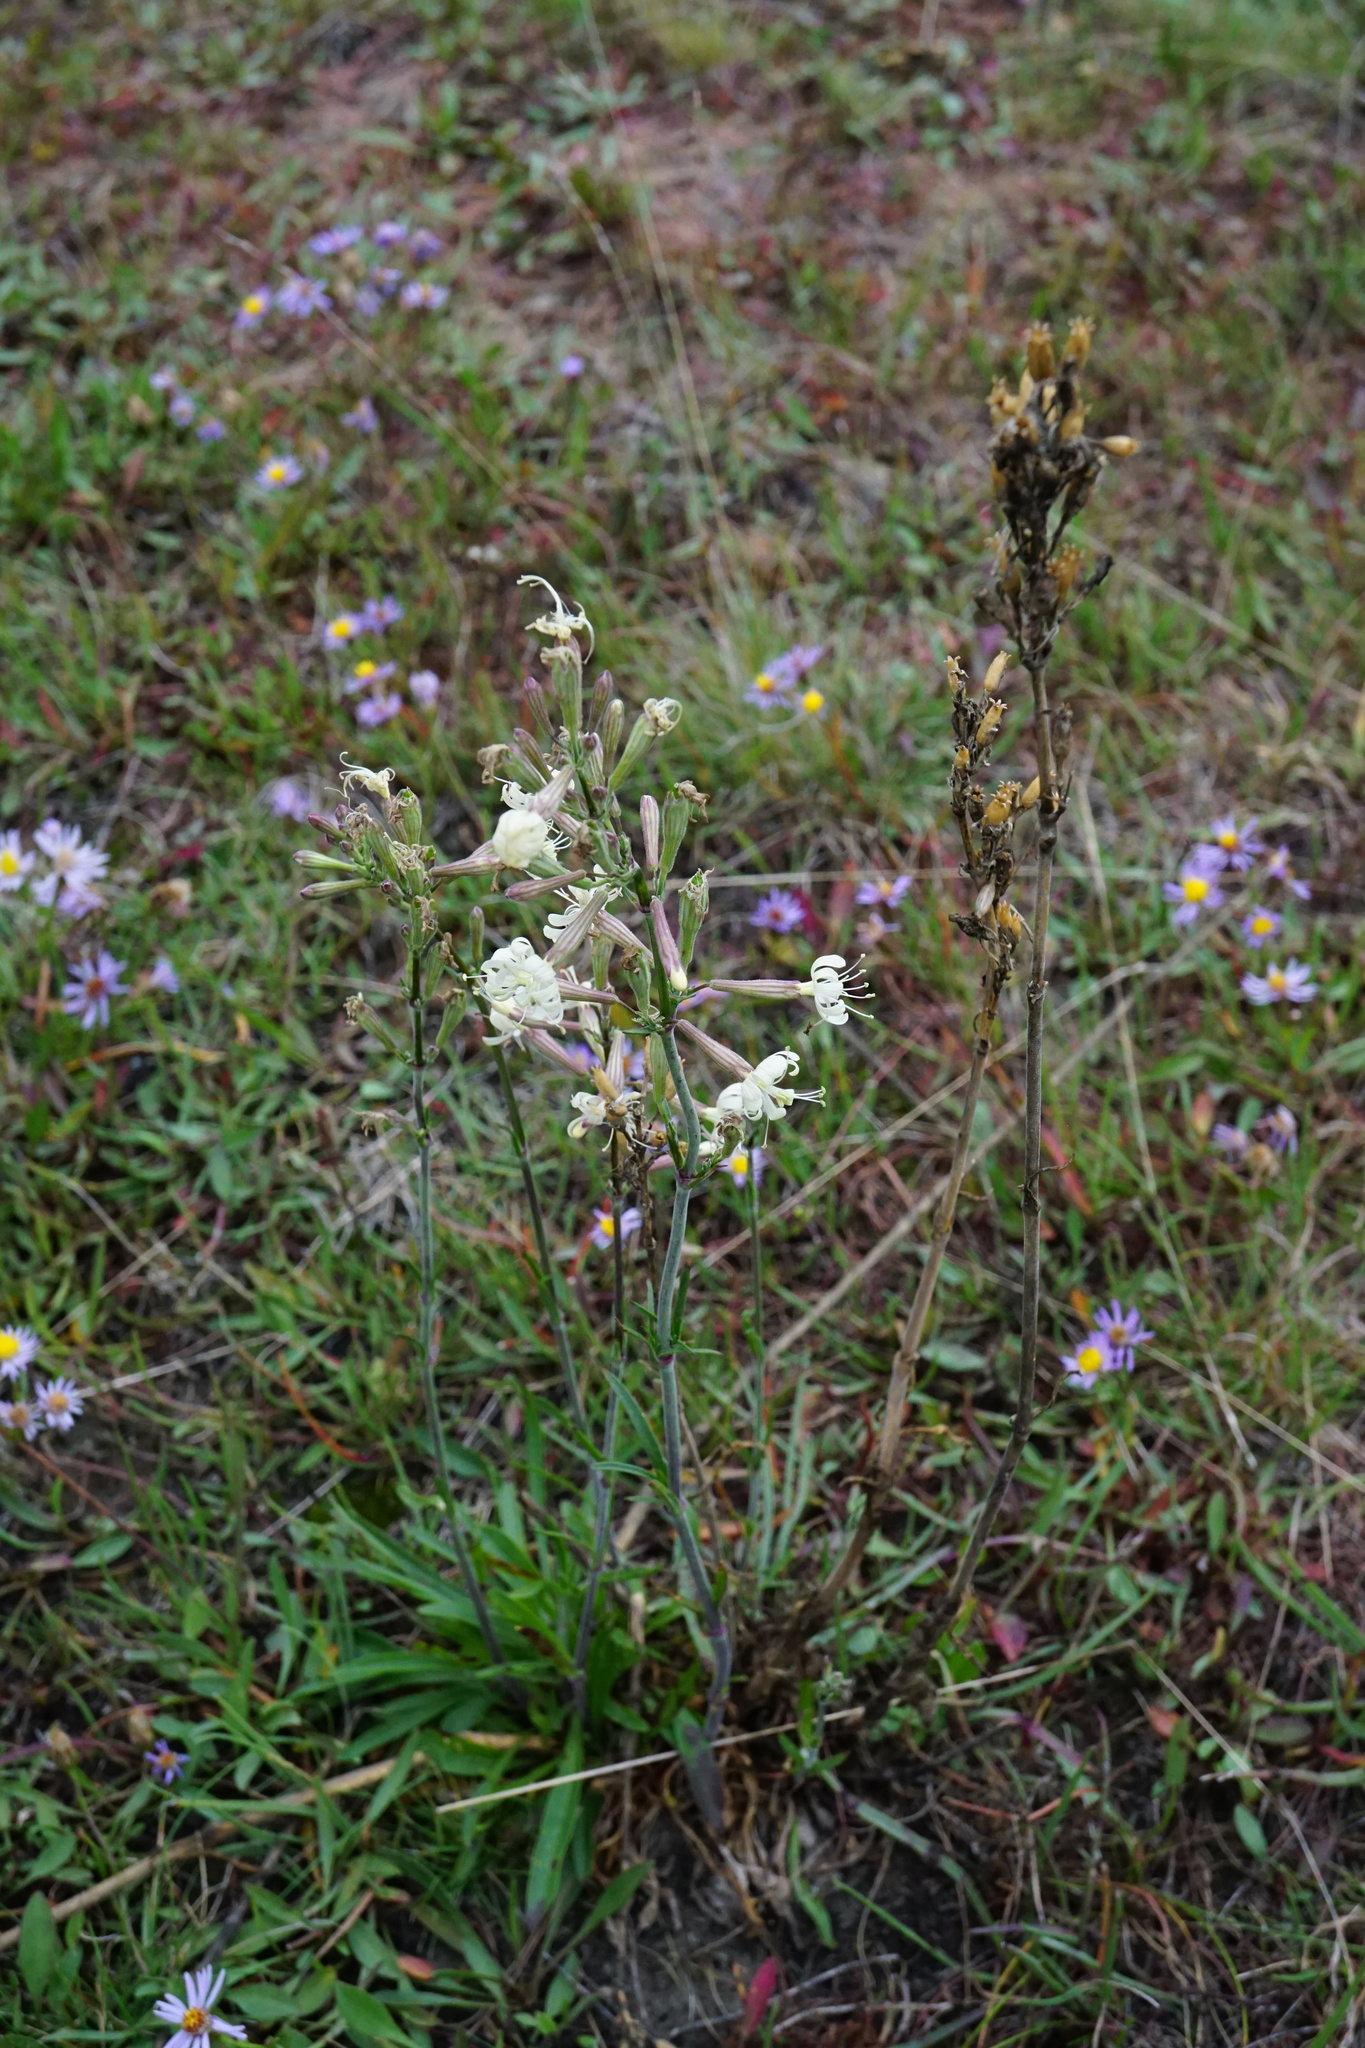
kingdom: Plantae
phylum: Tracheophyta
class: Magnoliopsida
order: Caryophyllales
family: Caryophyllaceae
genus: Silene
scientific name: Silene multiflora
